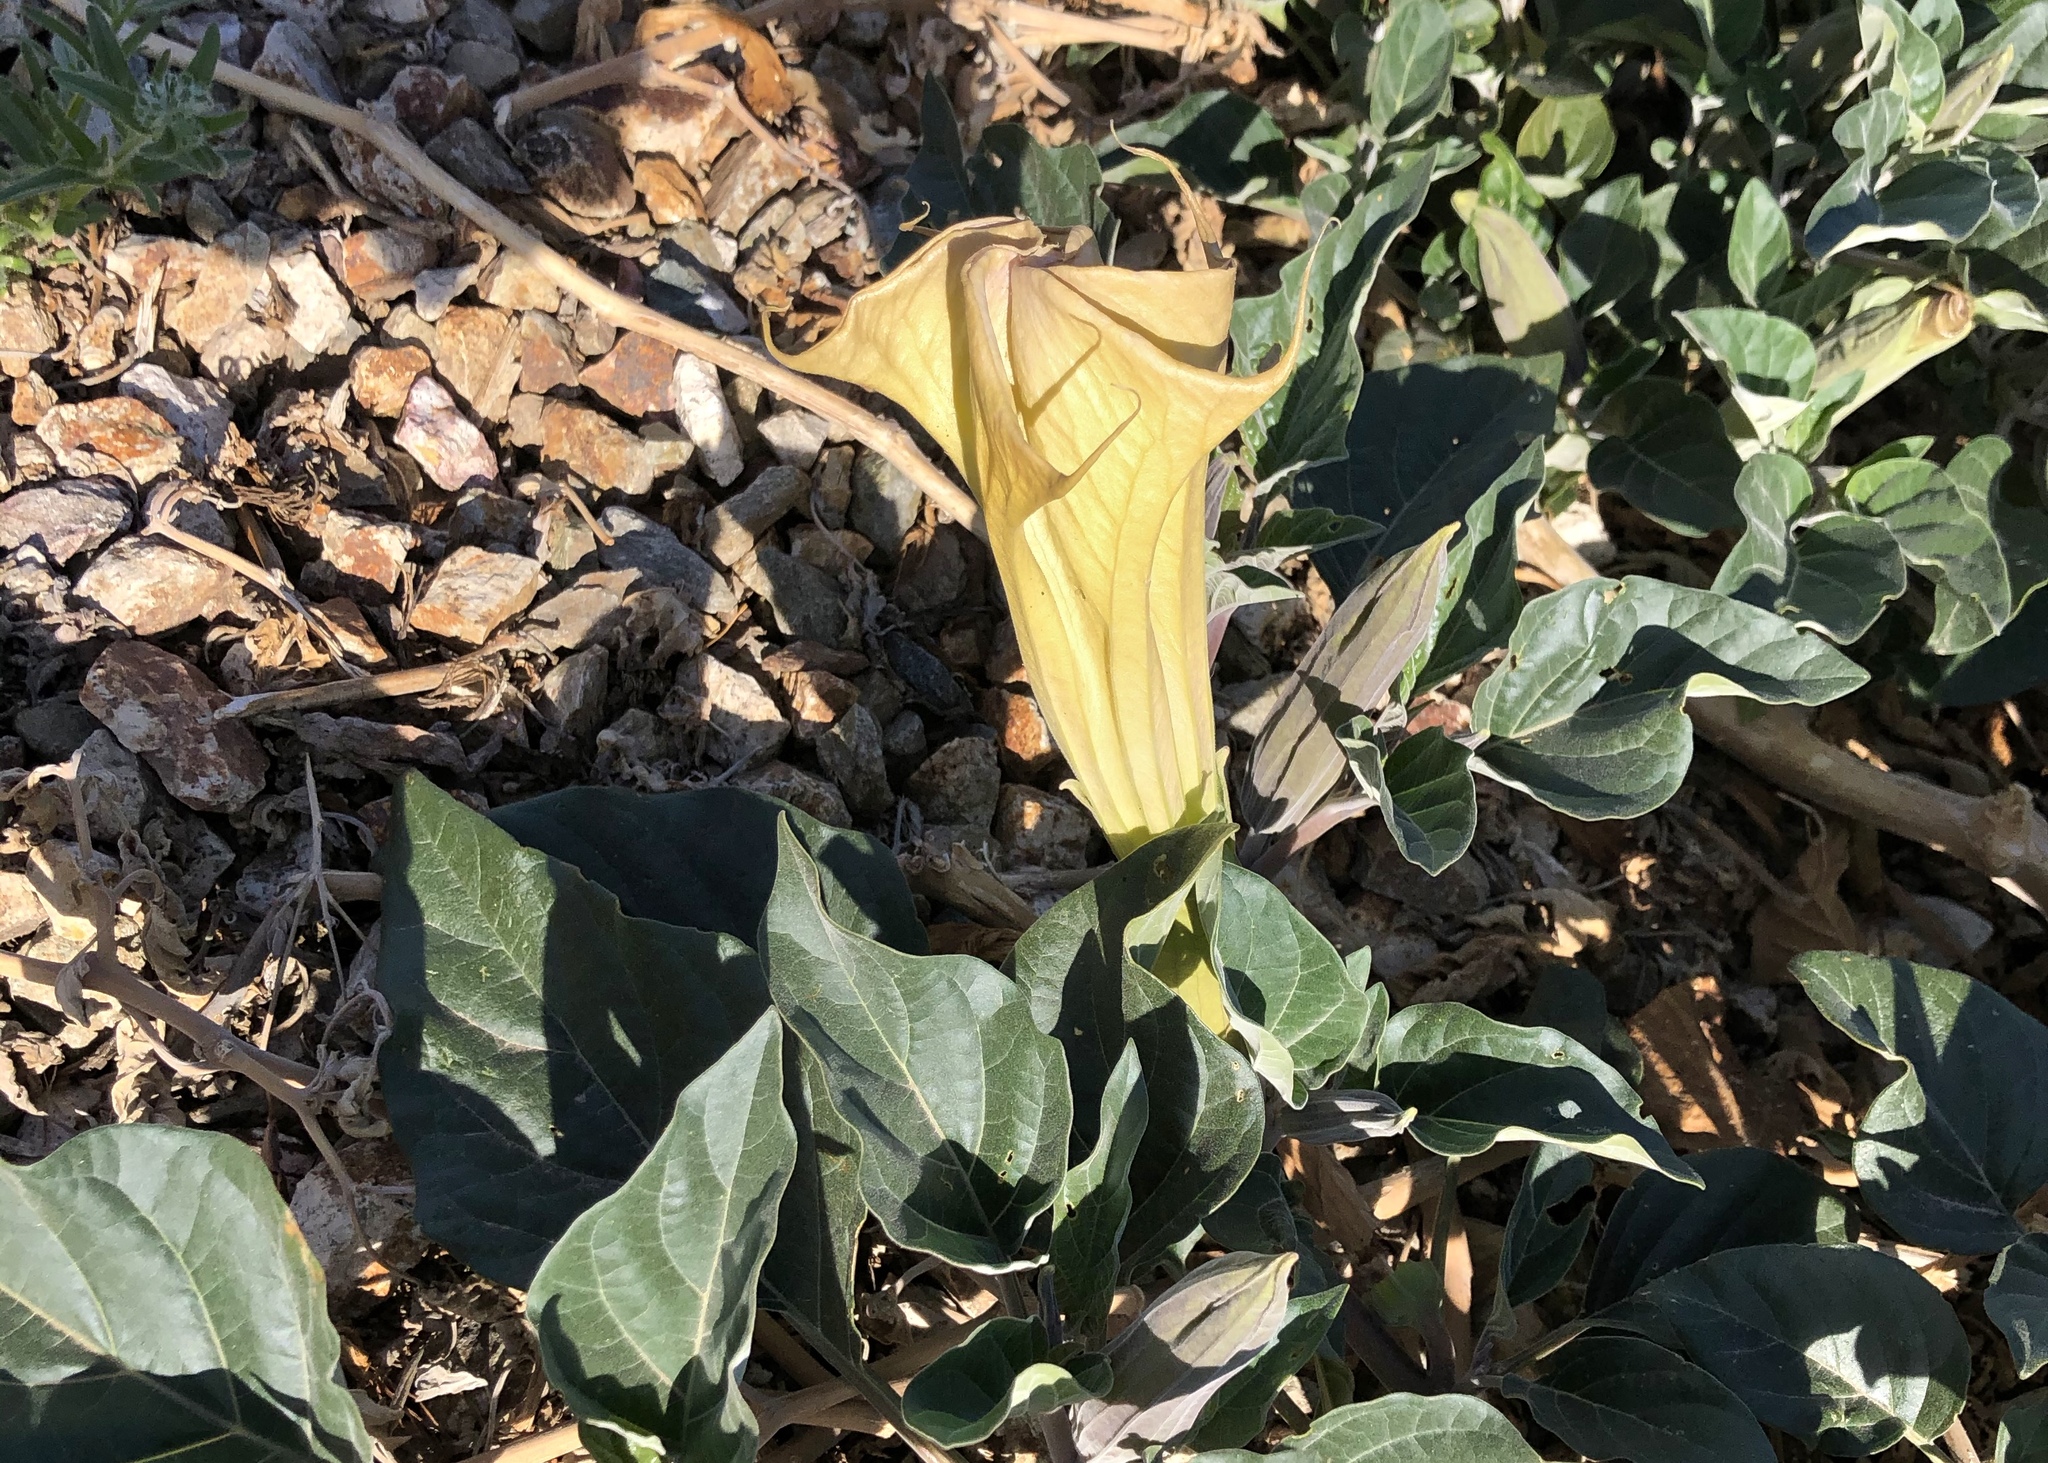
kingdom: Plantae
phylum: Tracheophyta
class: Magnoliopsida
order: Solanales
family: Solanaceae
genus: Datura
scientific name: Datura wrightii
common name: Sacred thorn-apple
